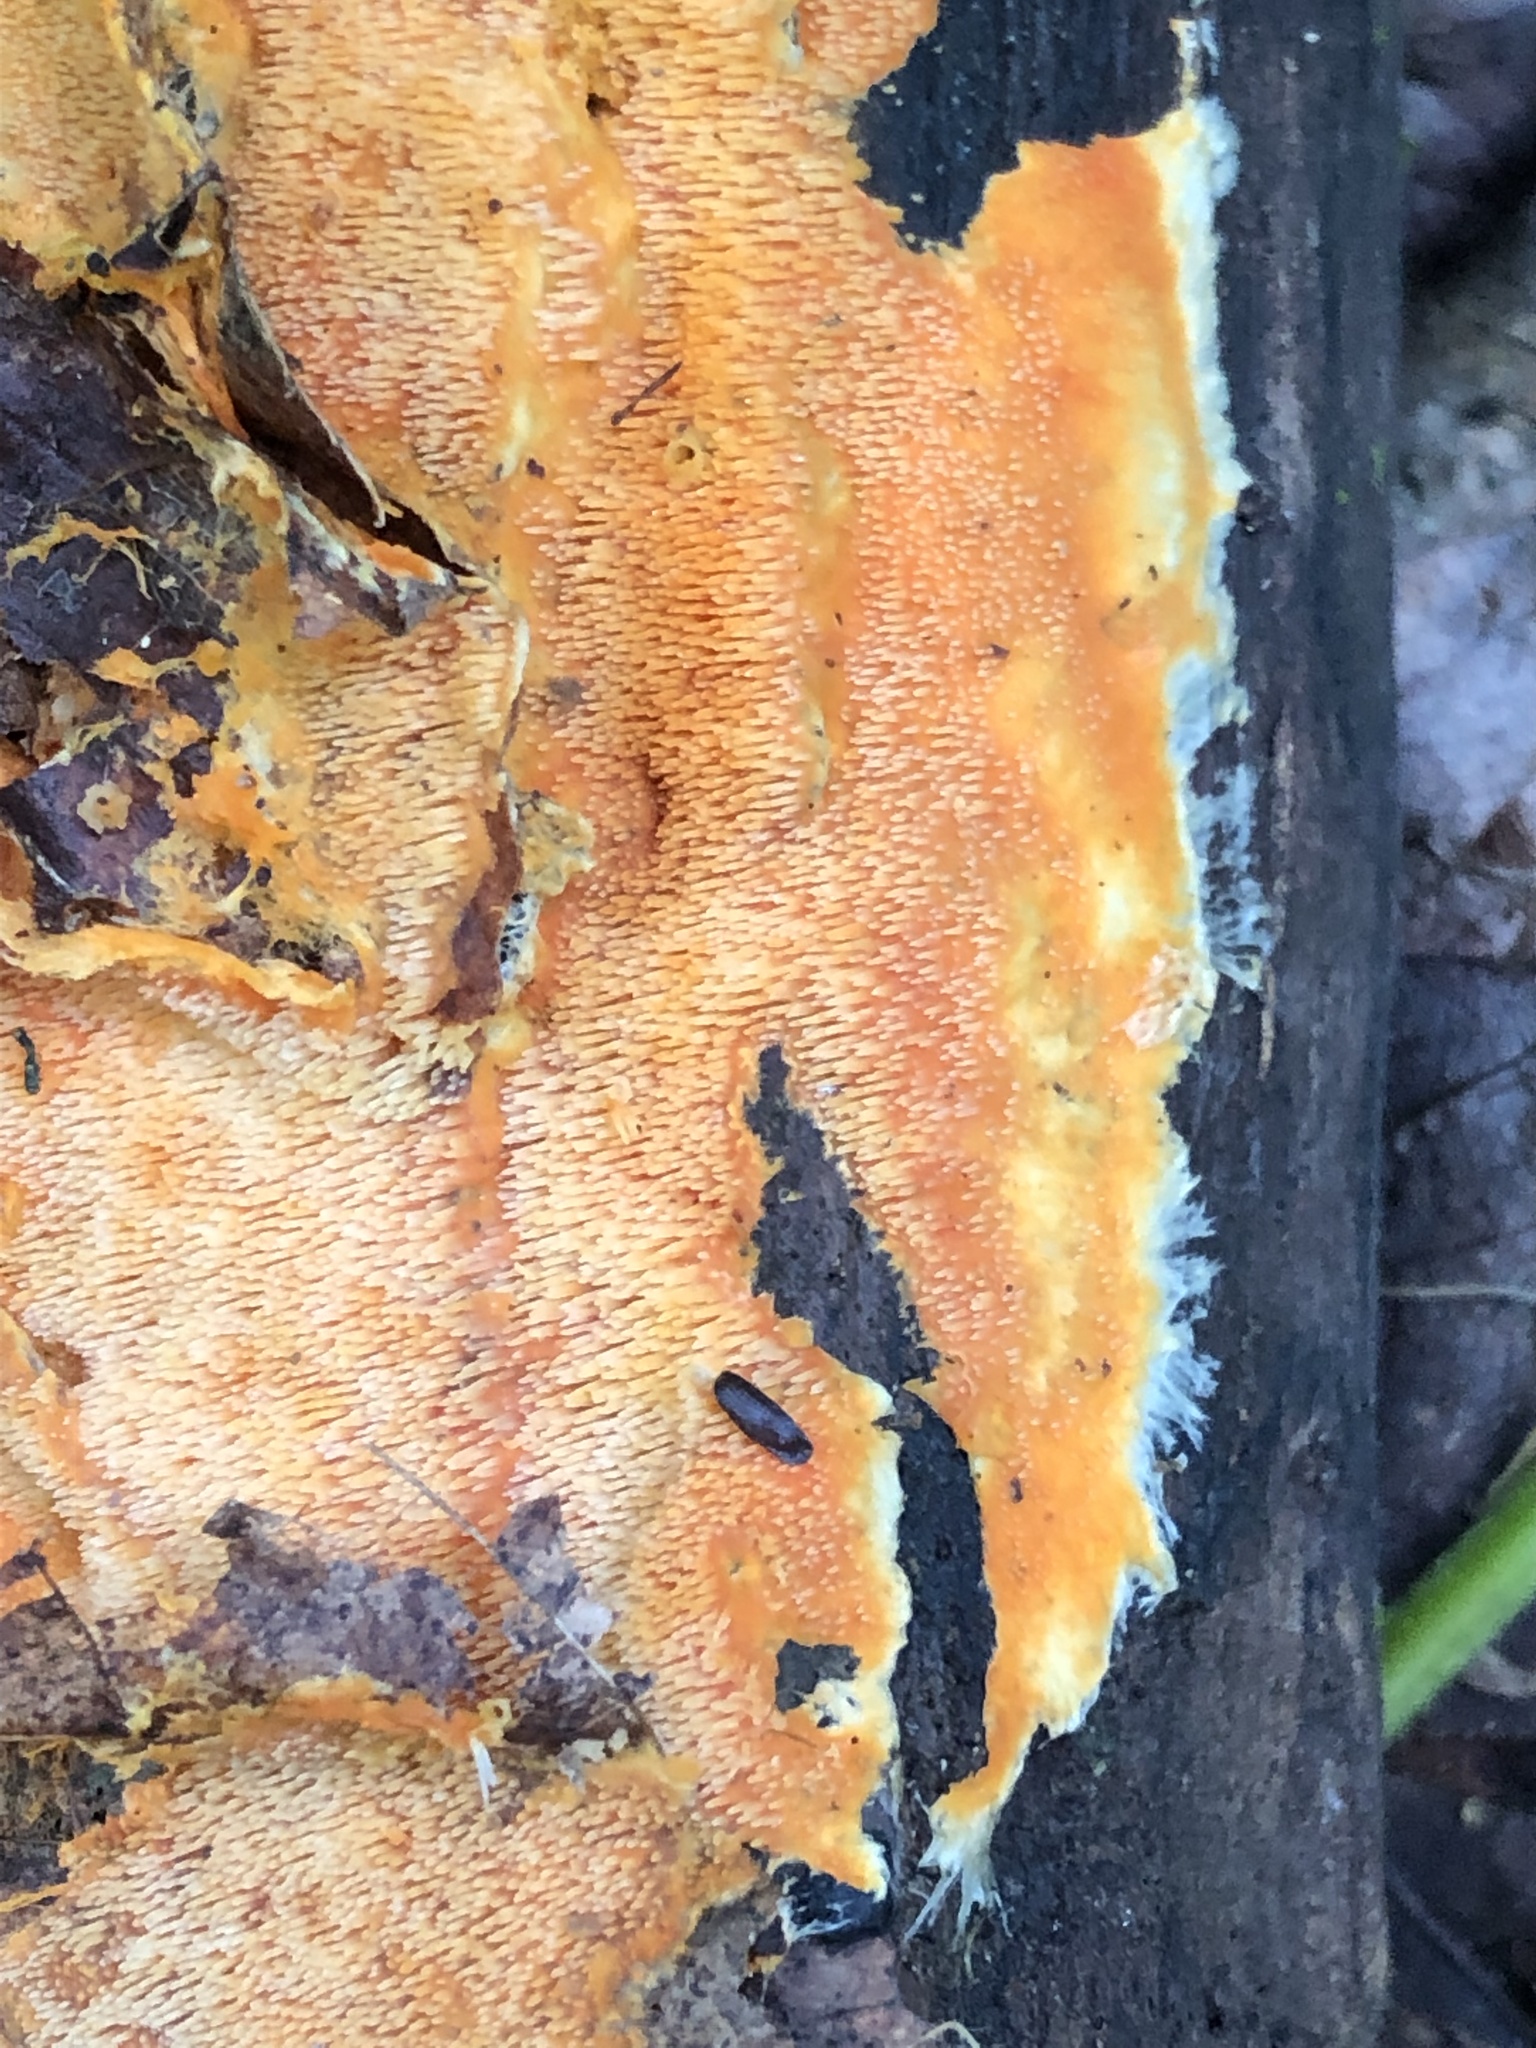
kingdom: Fungi
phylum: Basidiomycota
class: Agaricomycetes
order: Polyporales
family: Meruliaceae
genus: Hydnophlebia
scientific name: Hydnophlebia chrysorhiza
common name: Spreading yellow tooth
